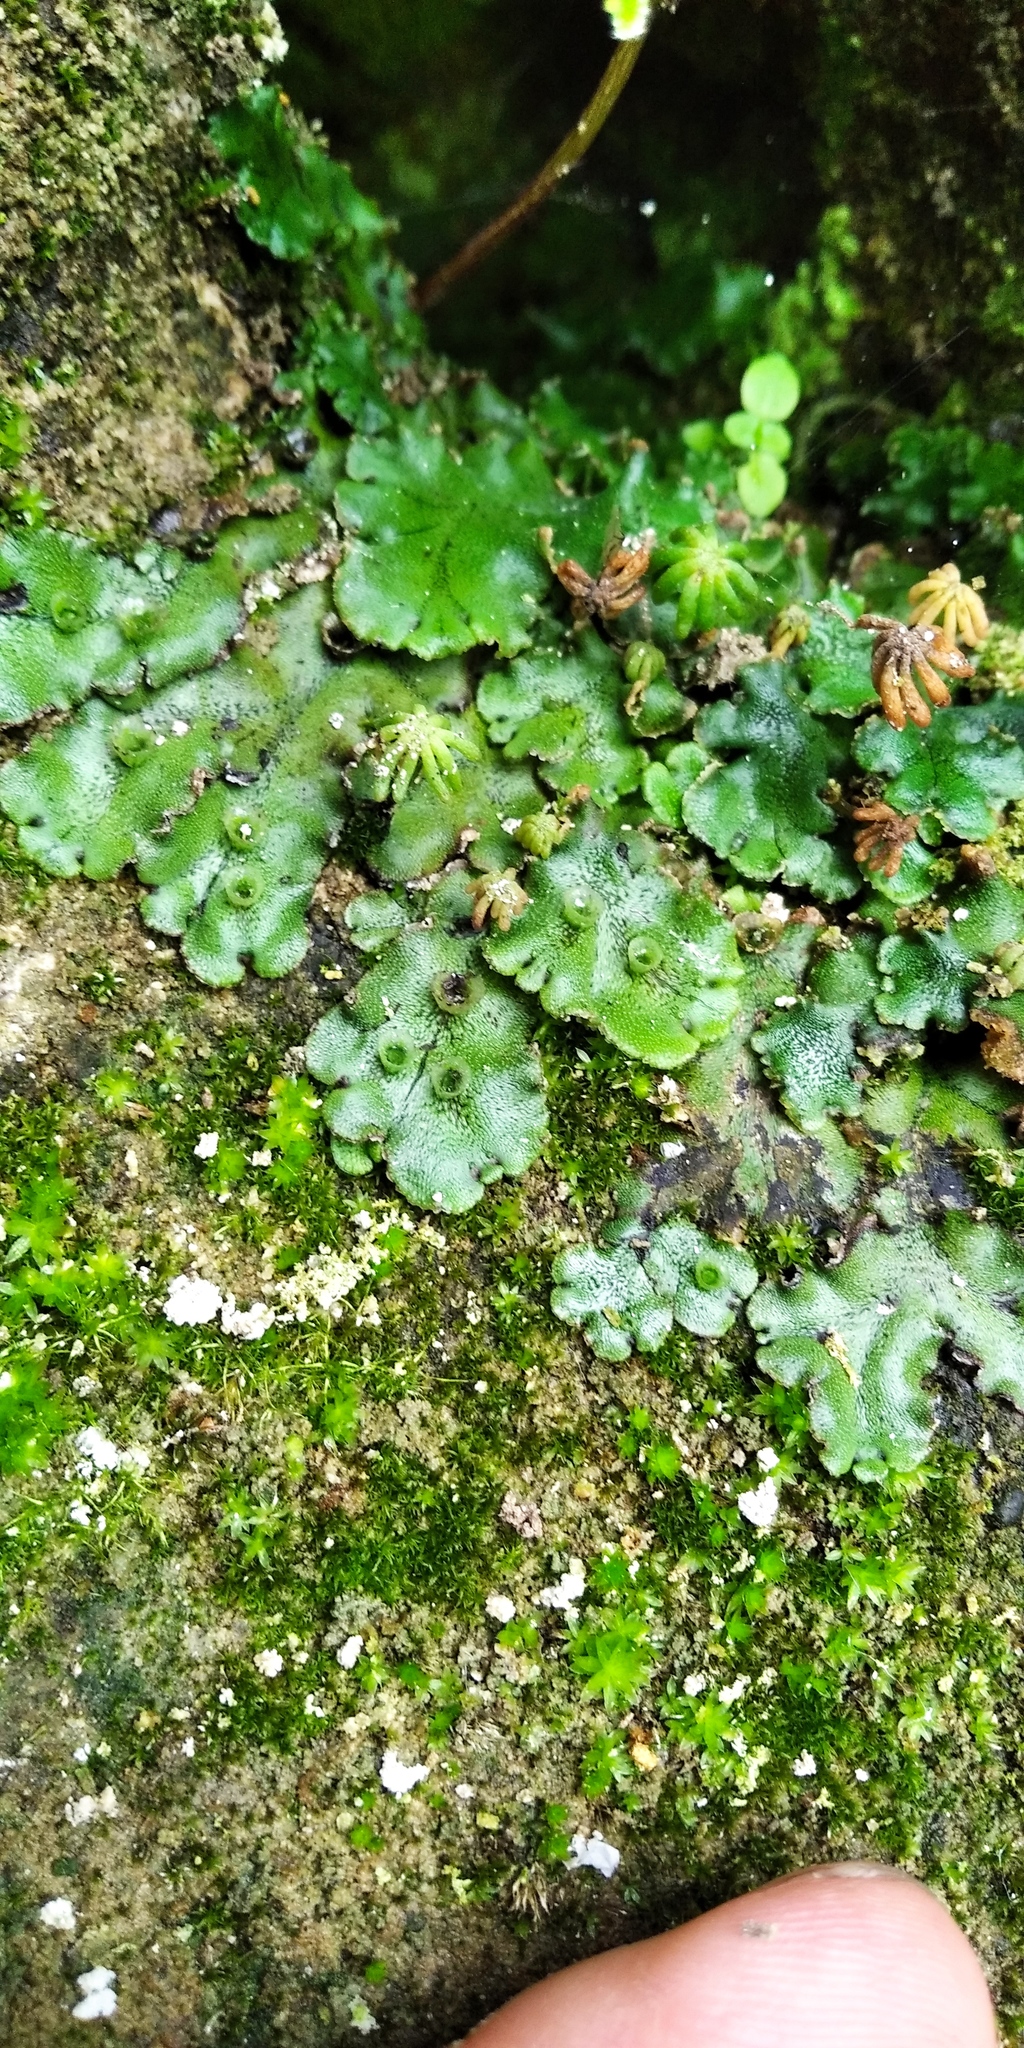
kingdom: Plantae
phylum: Marchantiophyta
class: Marchantiopsida
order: Marchantiales
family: Marchantiaceae
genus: Marchantia
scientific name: Marchantia polymorpha
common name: Common liverwort
